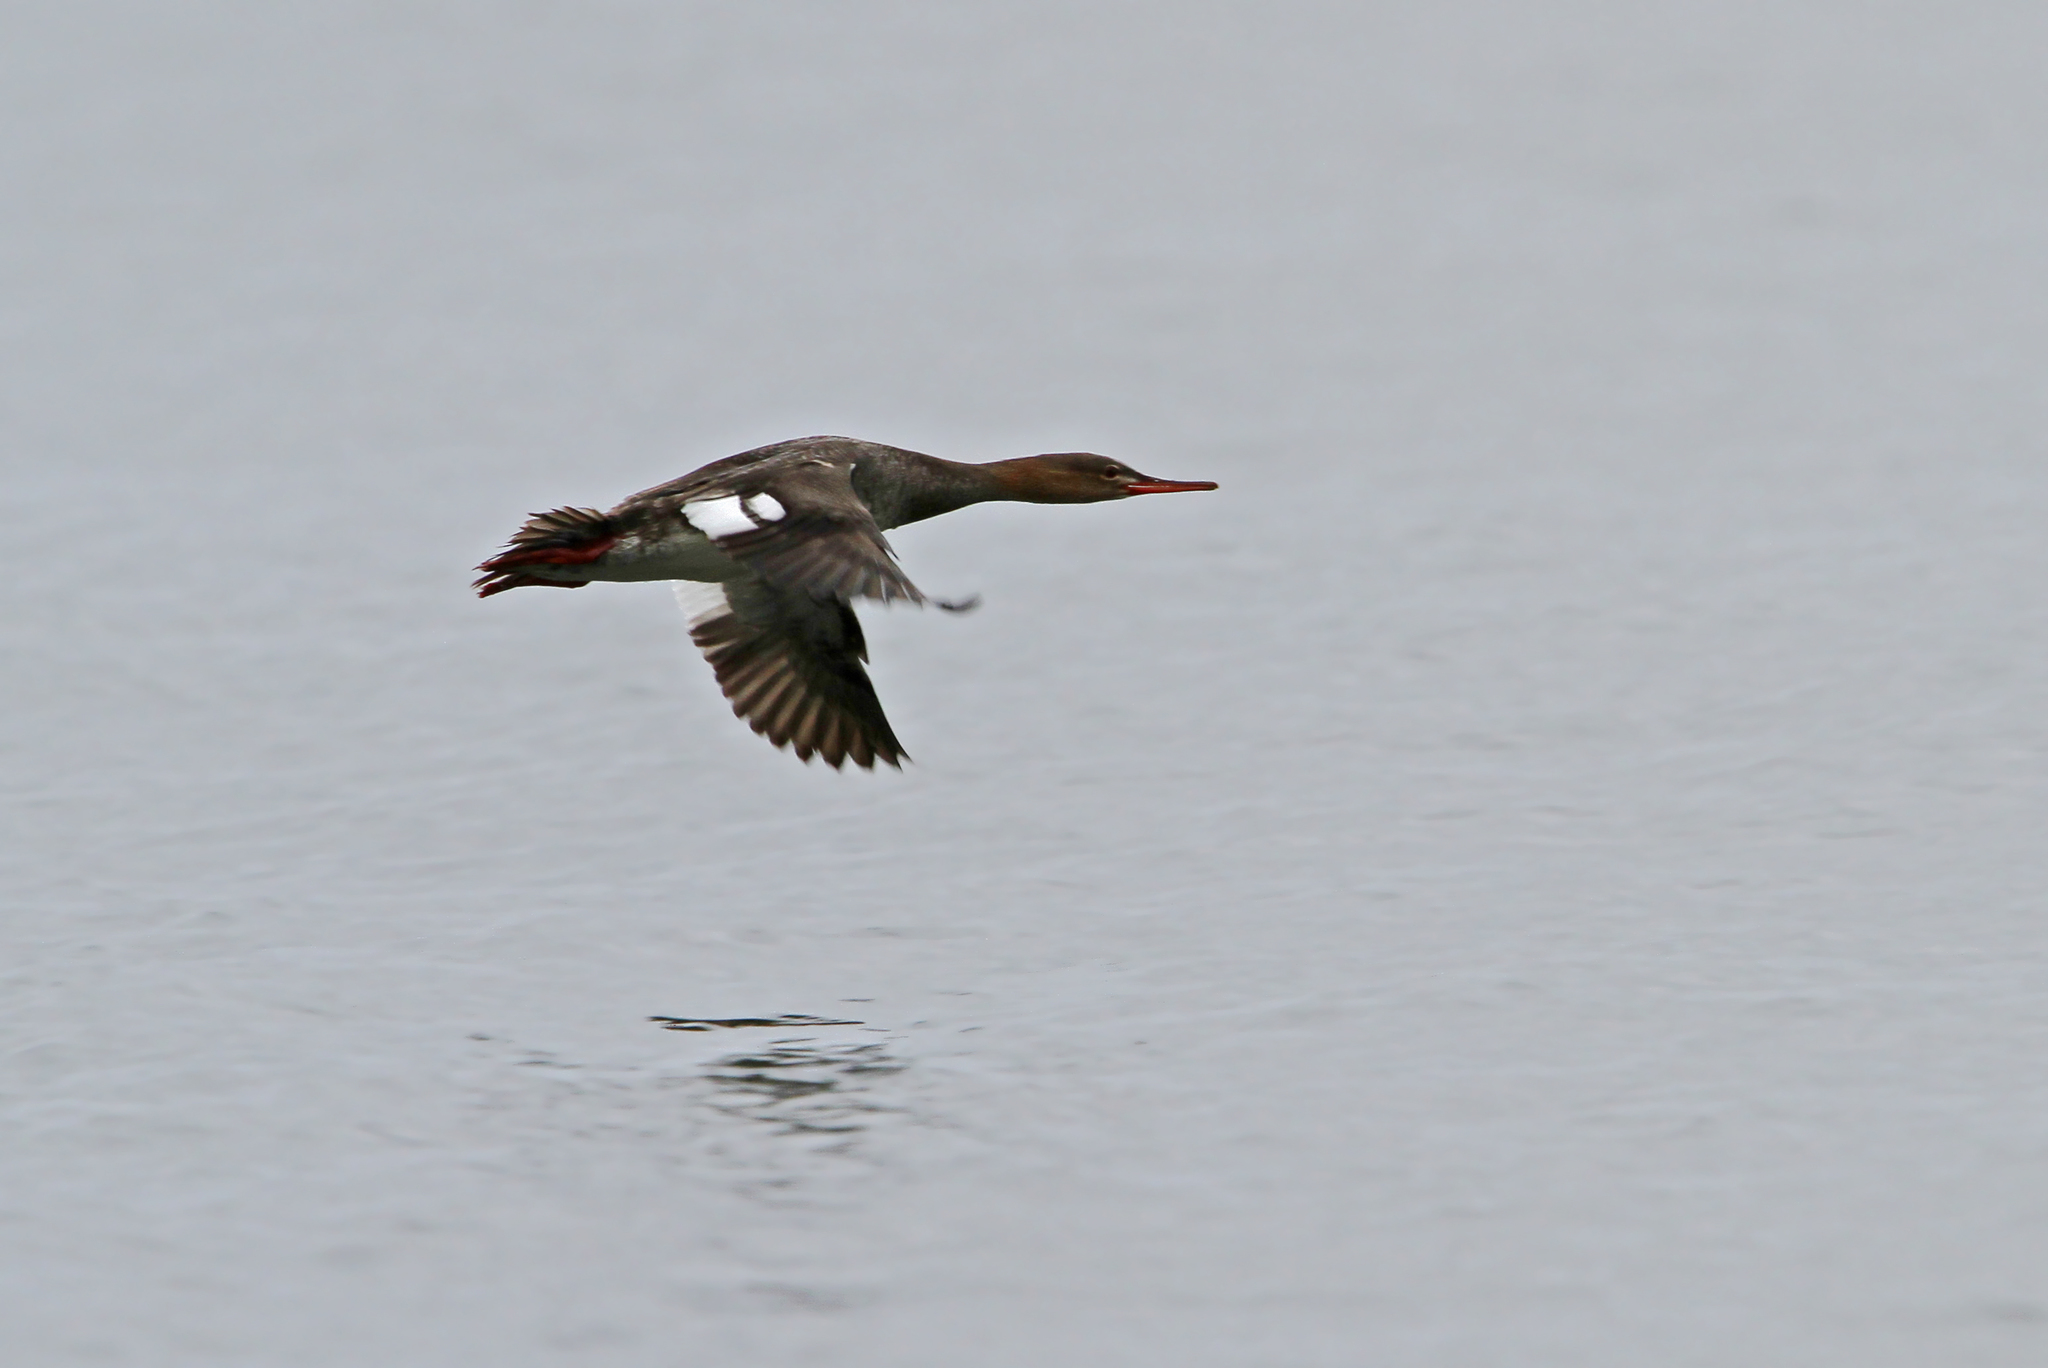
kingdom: Animalia
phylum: Chordata
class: Aves
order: Anseriformes
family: Anatidae
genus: Mergus
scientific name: Mergus serrator
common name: Red-breasted merganser
